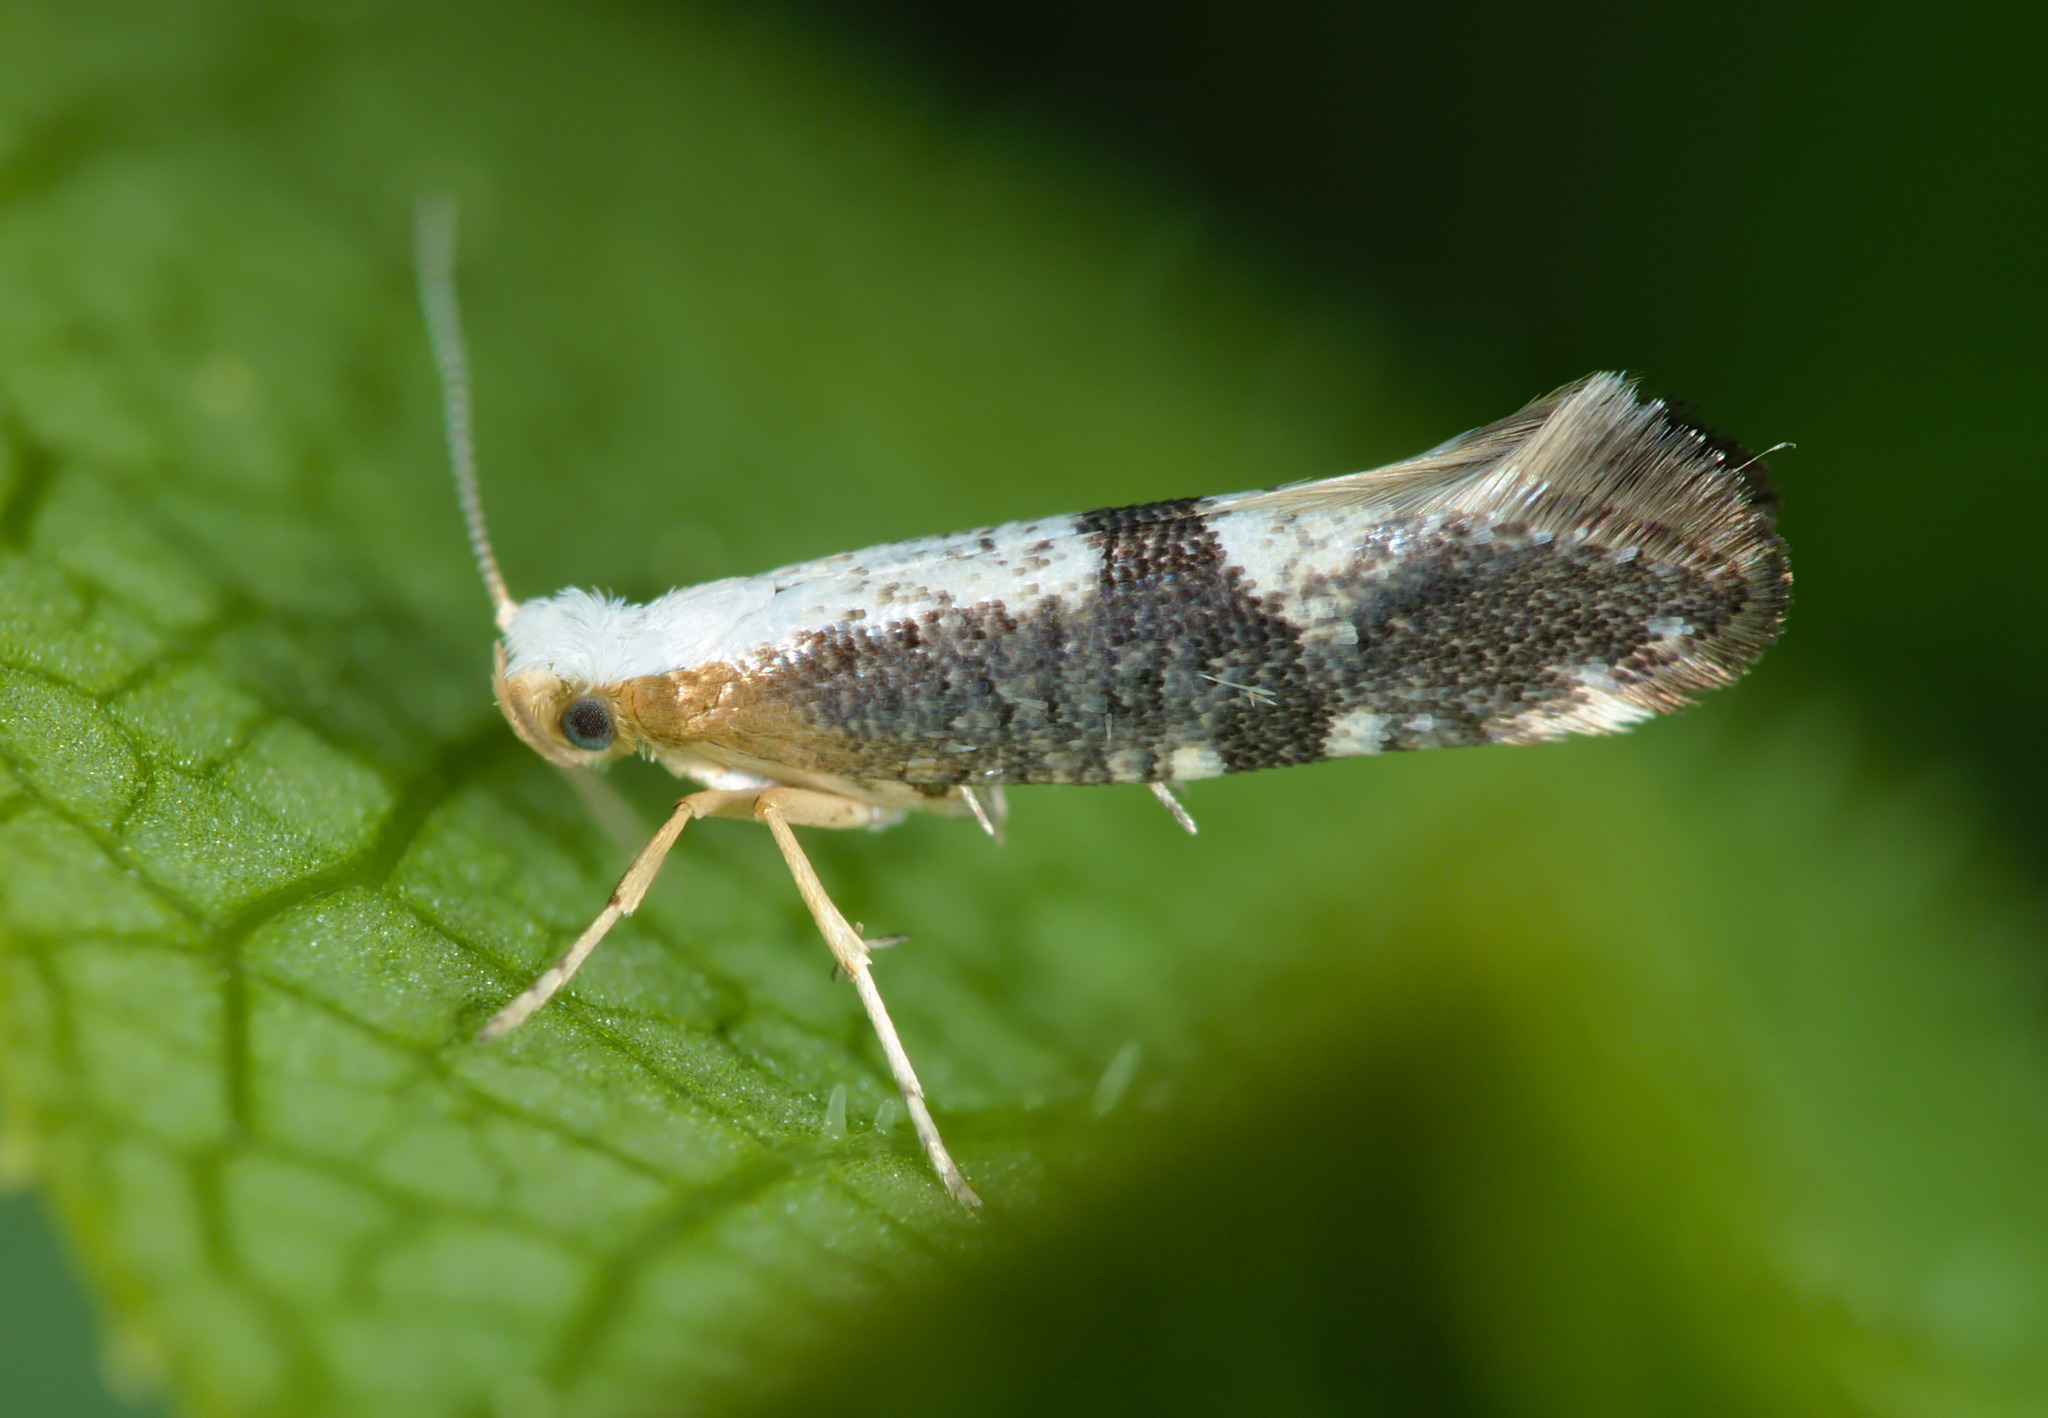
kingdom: Animalia
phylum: Arthropoda
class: Insecta
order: Lepidoptera
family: Argyresthiidae
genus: Argyresthia
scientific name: Argyresthia spinosella
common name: Blackthorn argent
